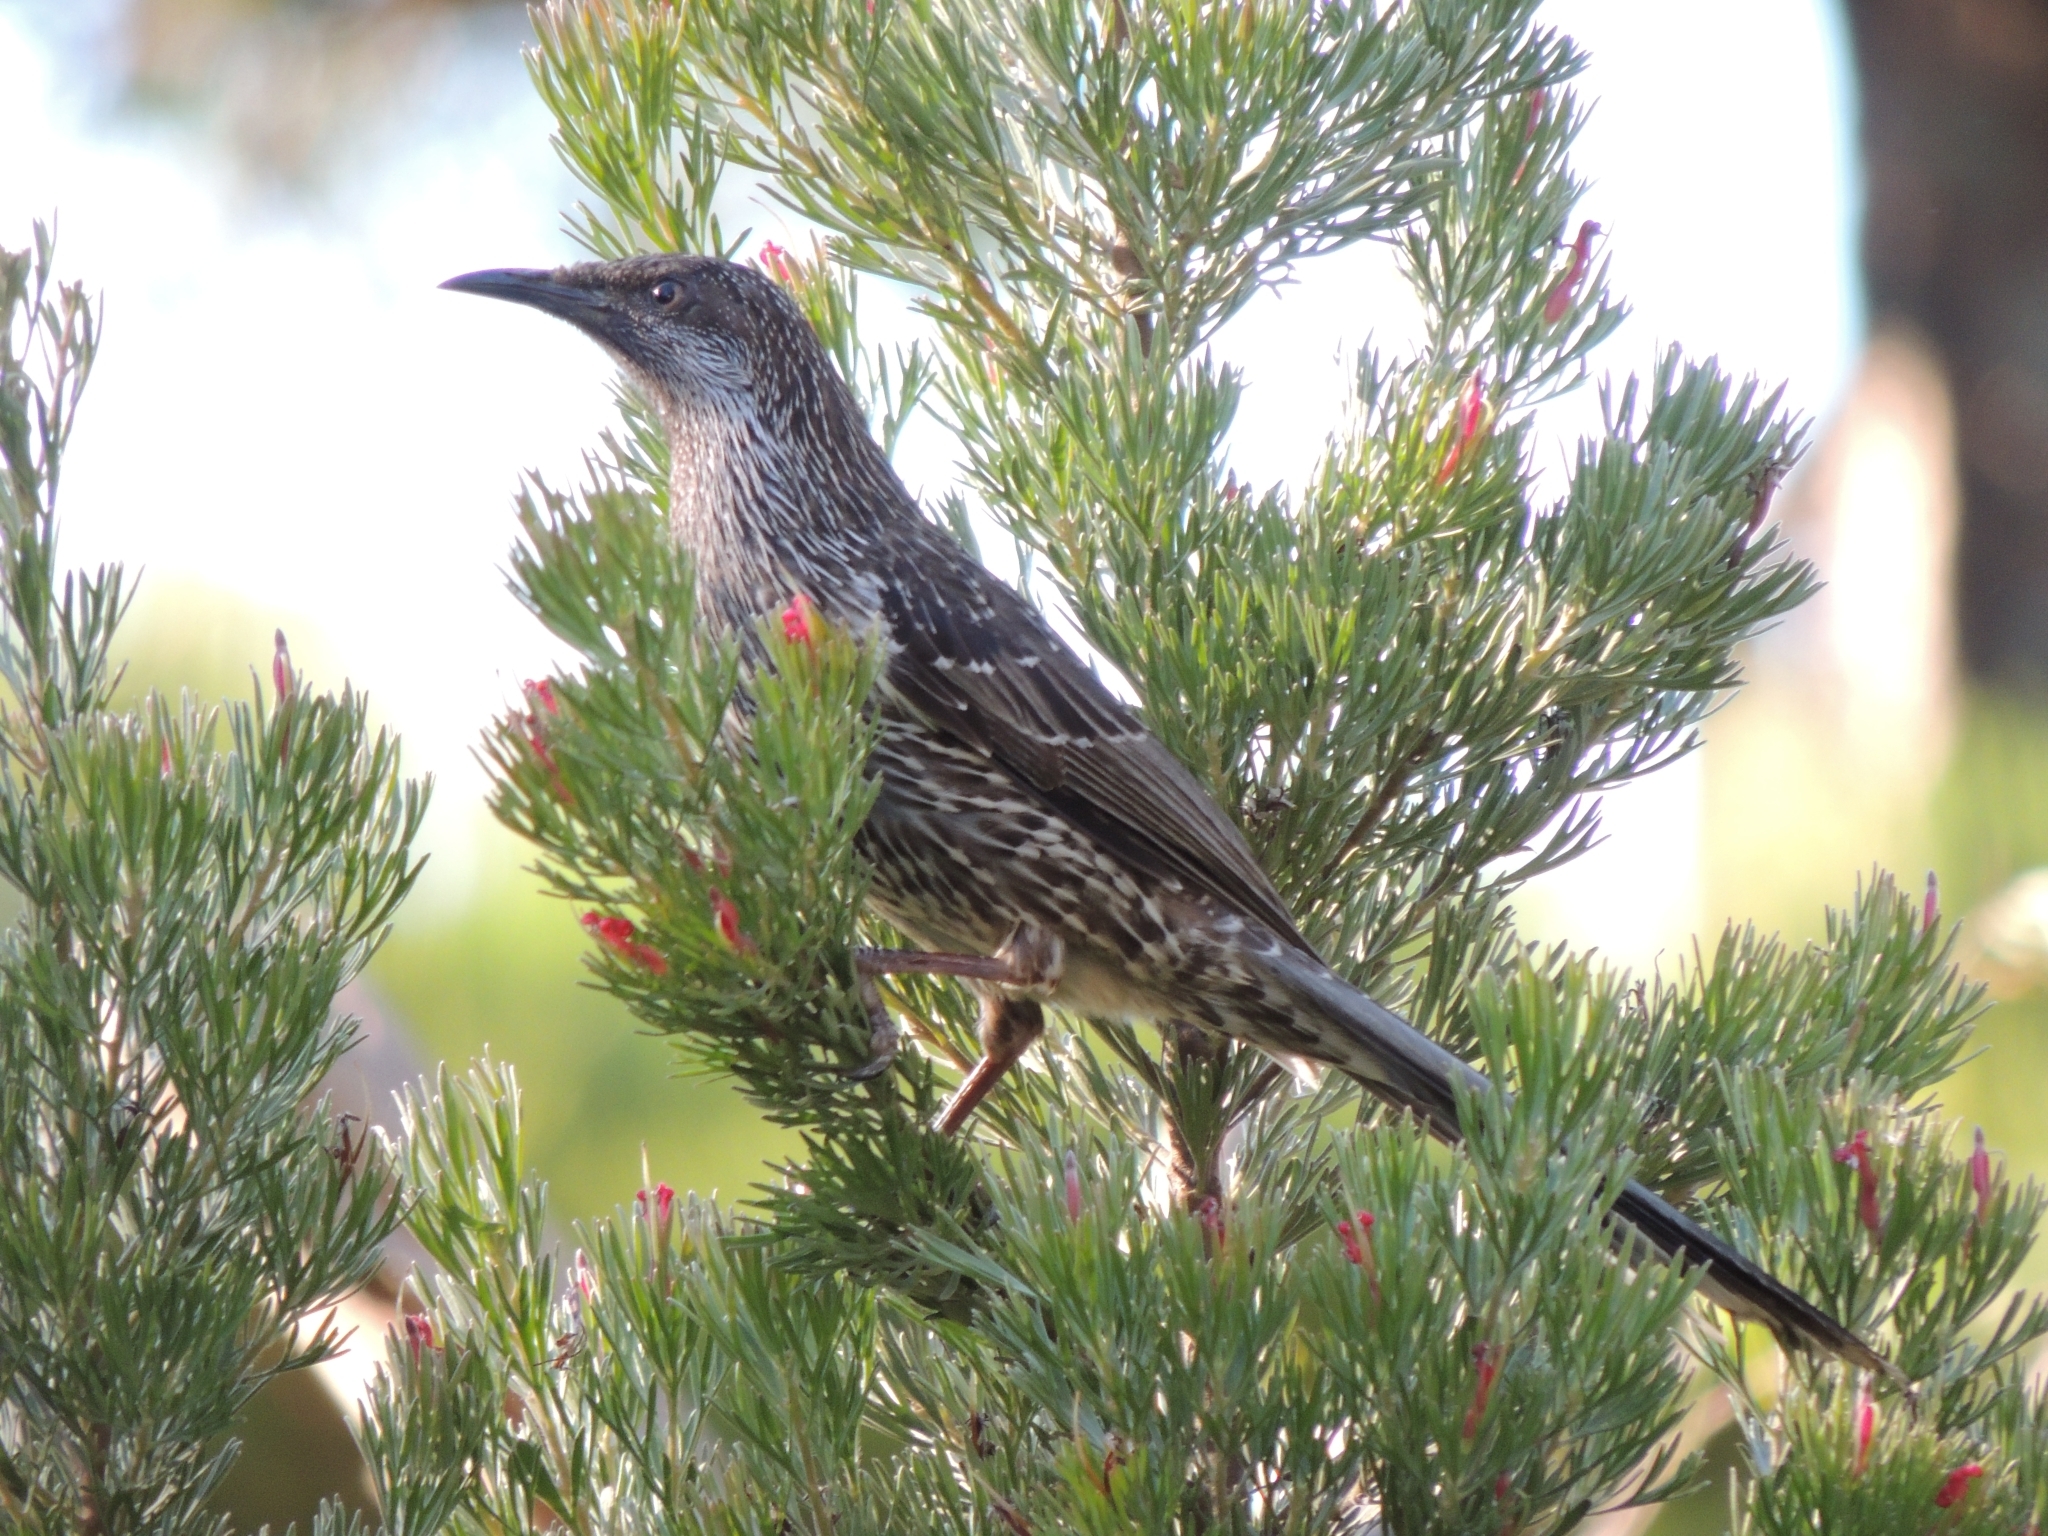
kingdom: Animalia
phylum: Chordata
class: Aves
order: Passeriformes
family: Meliphagidae
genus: Anthochaera
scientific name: Anthochaera chrysoptera
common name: Little wattlebird
